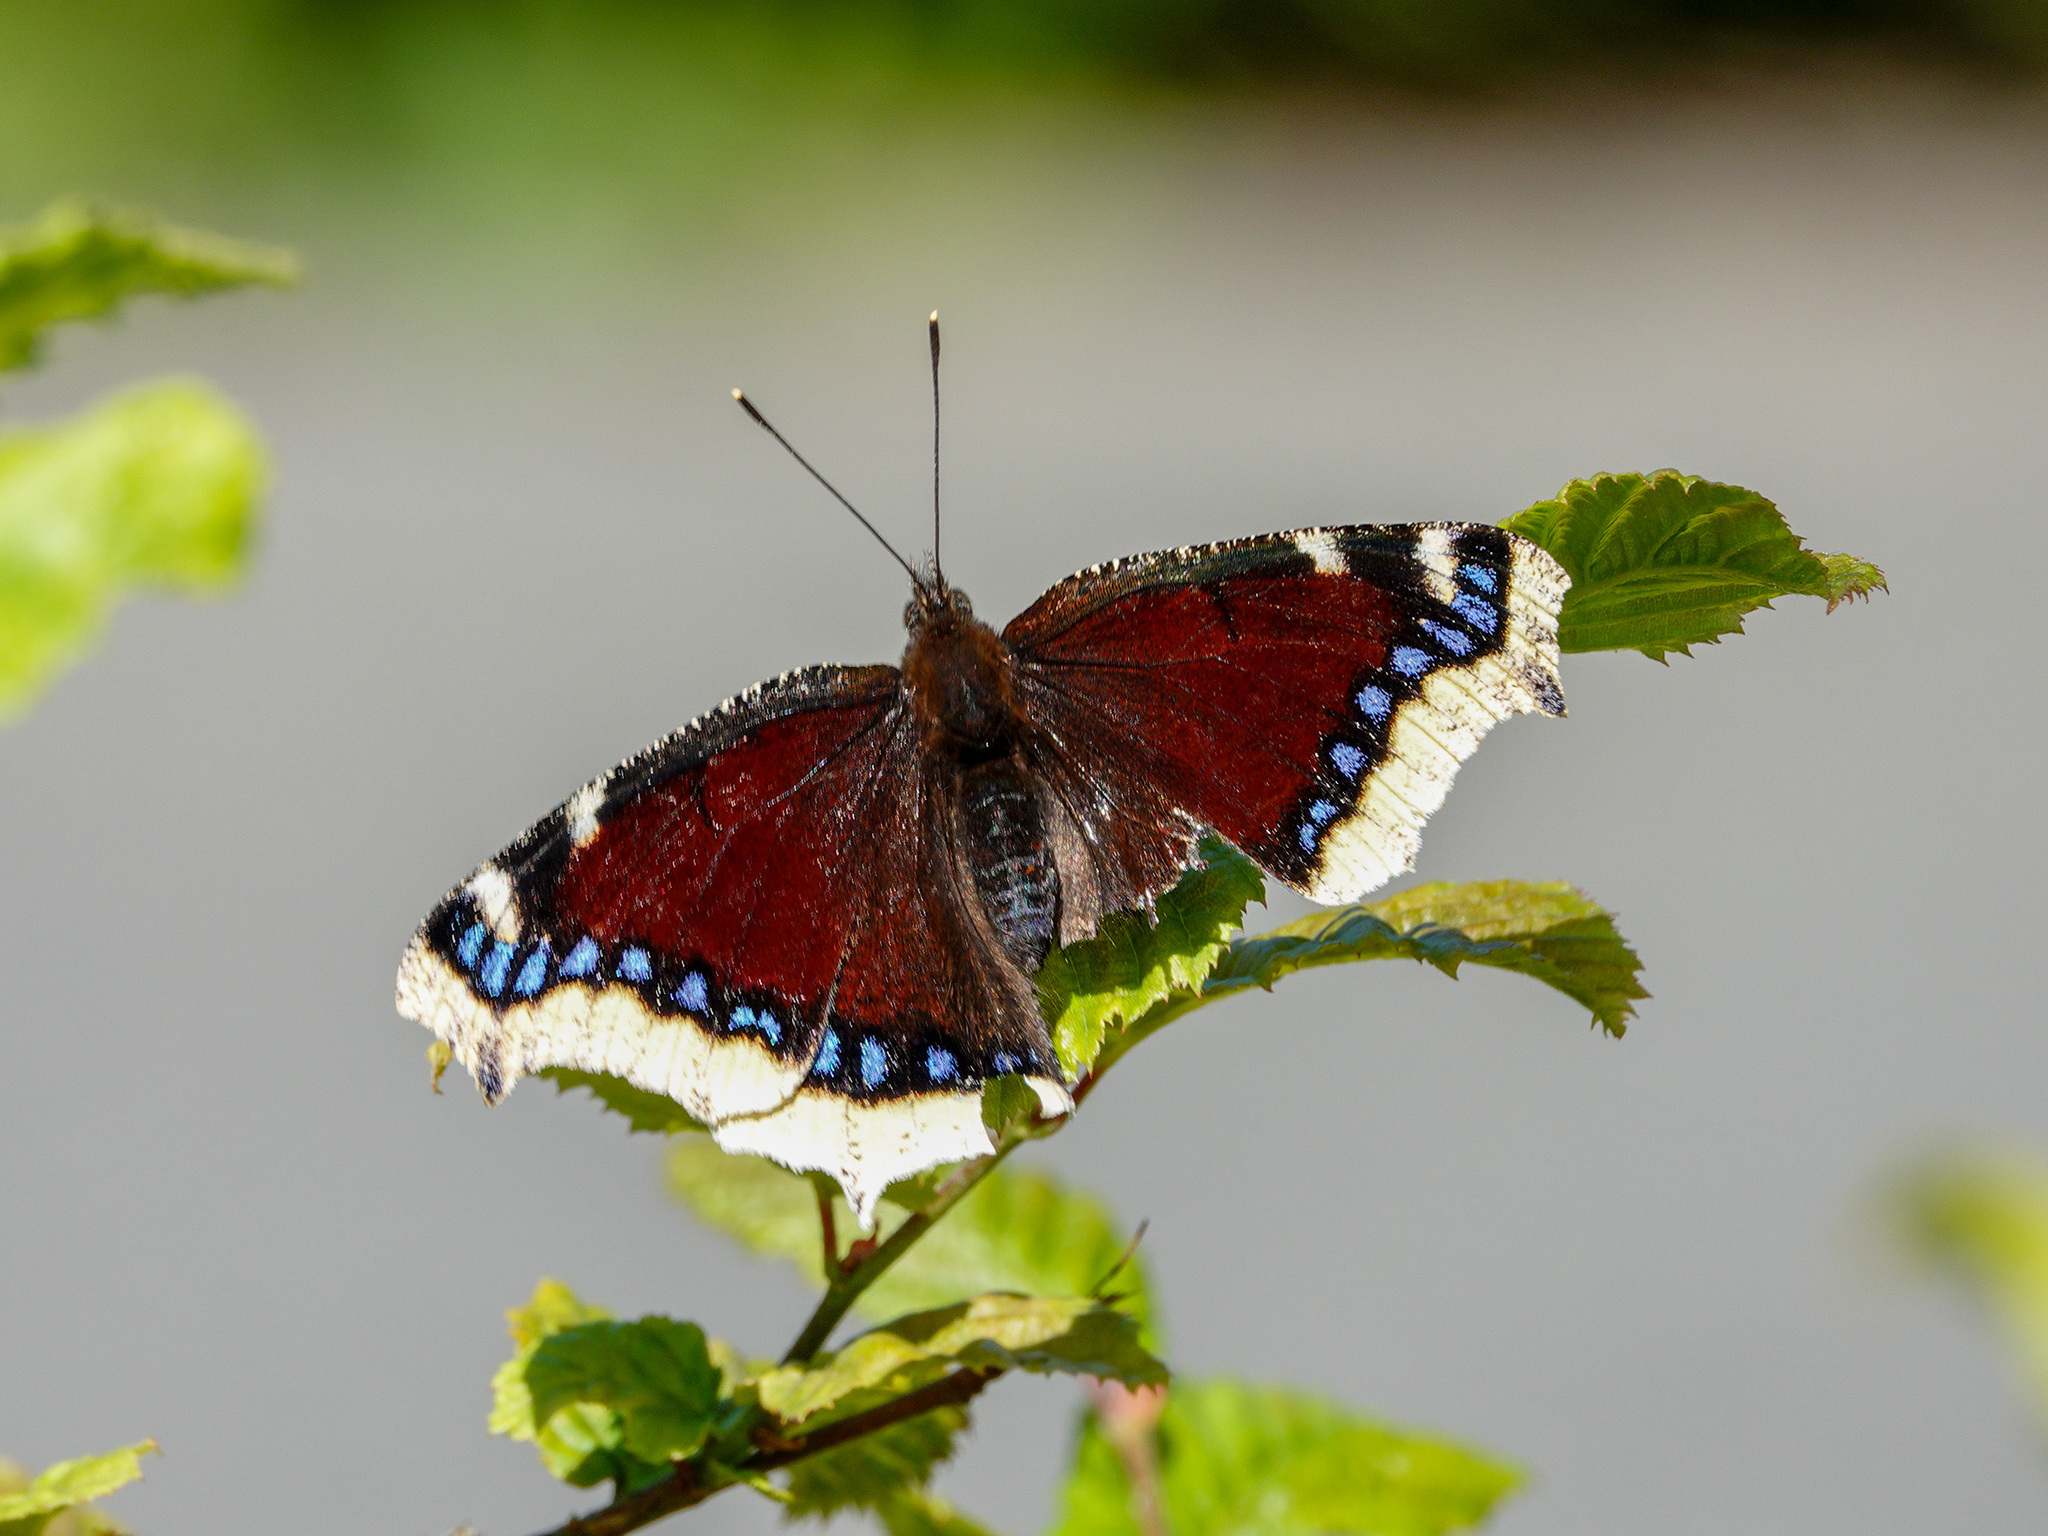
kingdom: Animalia
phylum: Arthropoda
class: Insecta
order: Lepidoptera
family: Nymphalidae
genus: Nymphalis
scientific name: Nymphalis antiopa
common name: Camberwell beauty
